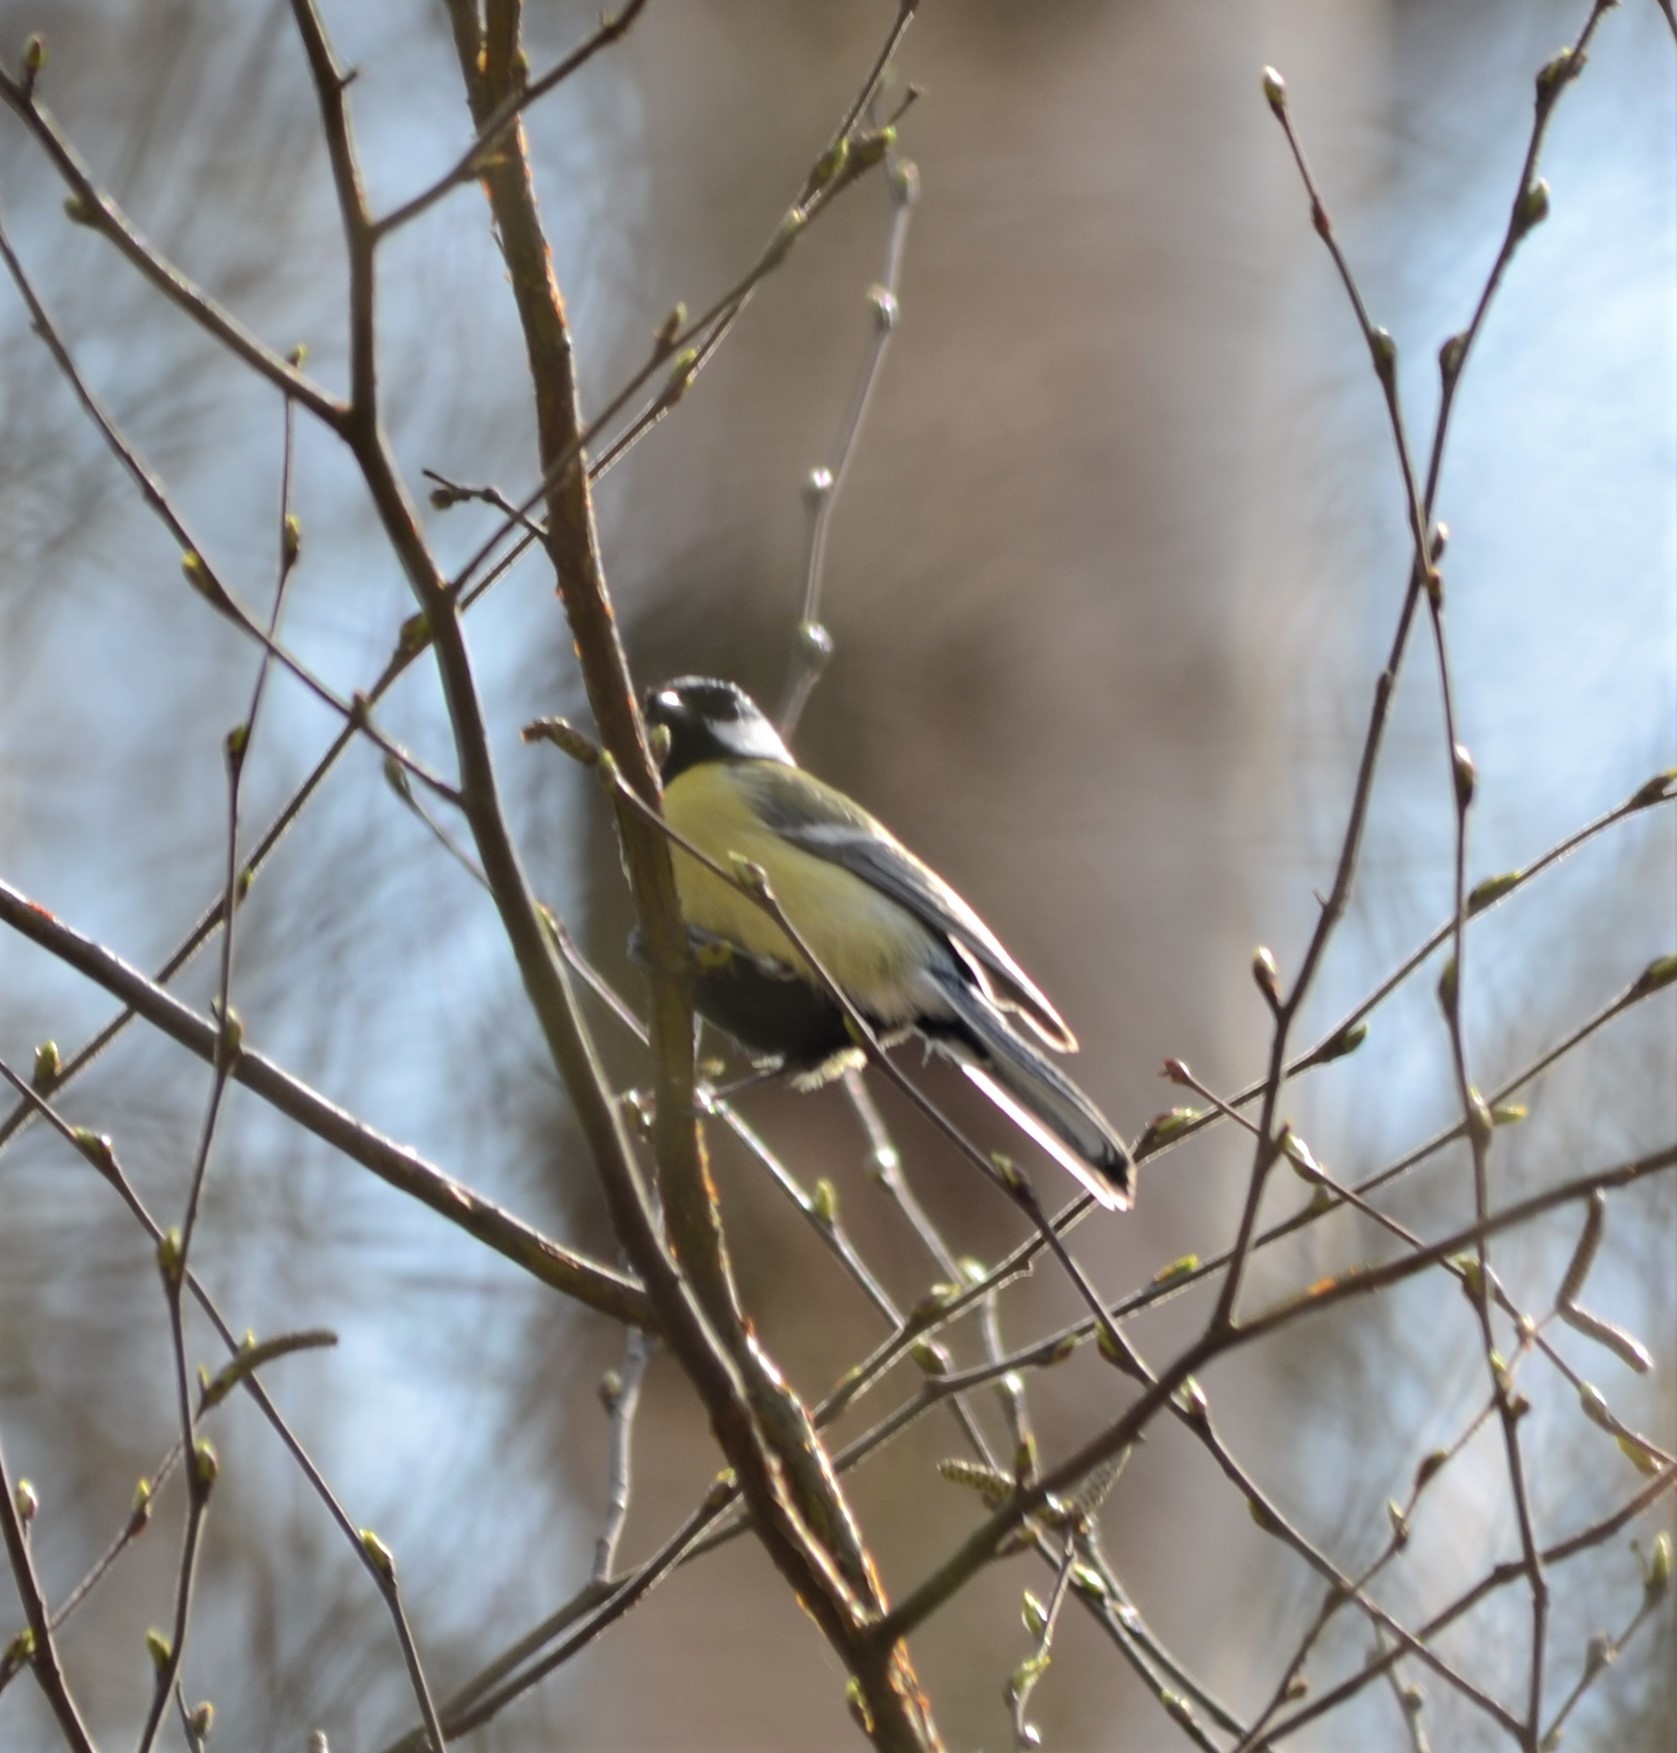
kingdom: Animalia
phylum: Chordata
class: Aves
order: Passeriformes
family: Paridae
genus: Parus
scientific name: Parus major
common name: Great tit
